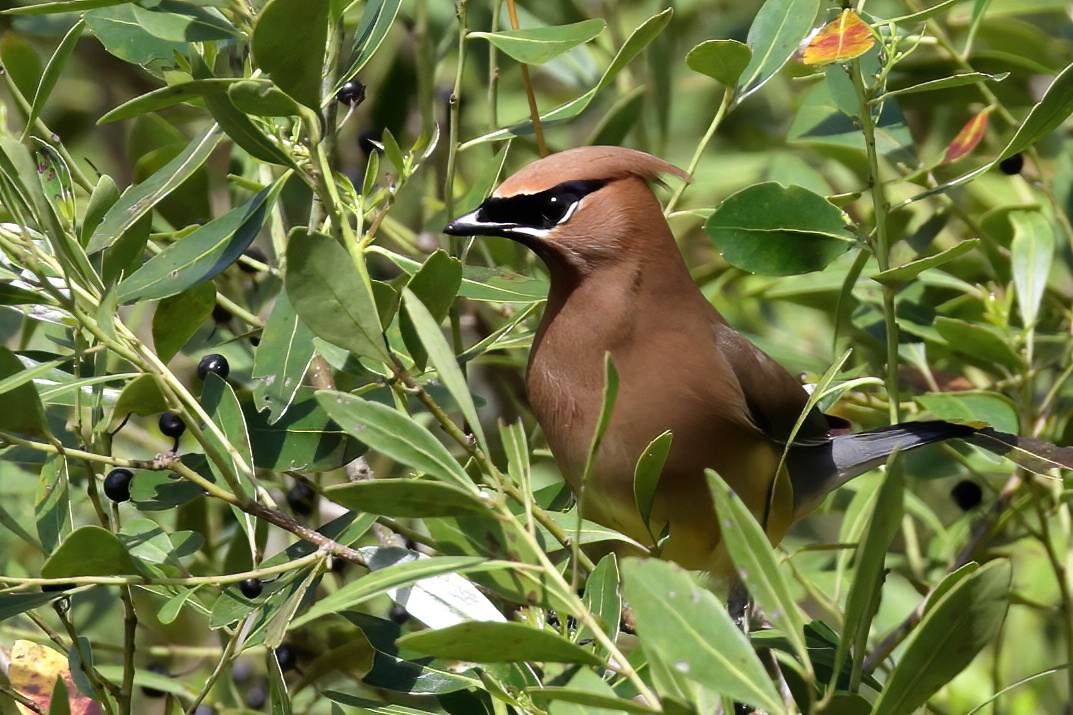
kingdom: Animalia
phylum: Chordata
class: Aves
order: Passeriformes
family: Bombycillidae
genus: Bombycilla
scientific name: Bombycilla cedrorum
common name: Cedar waxwing
